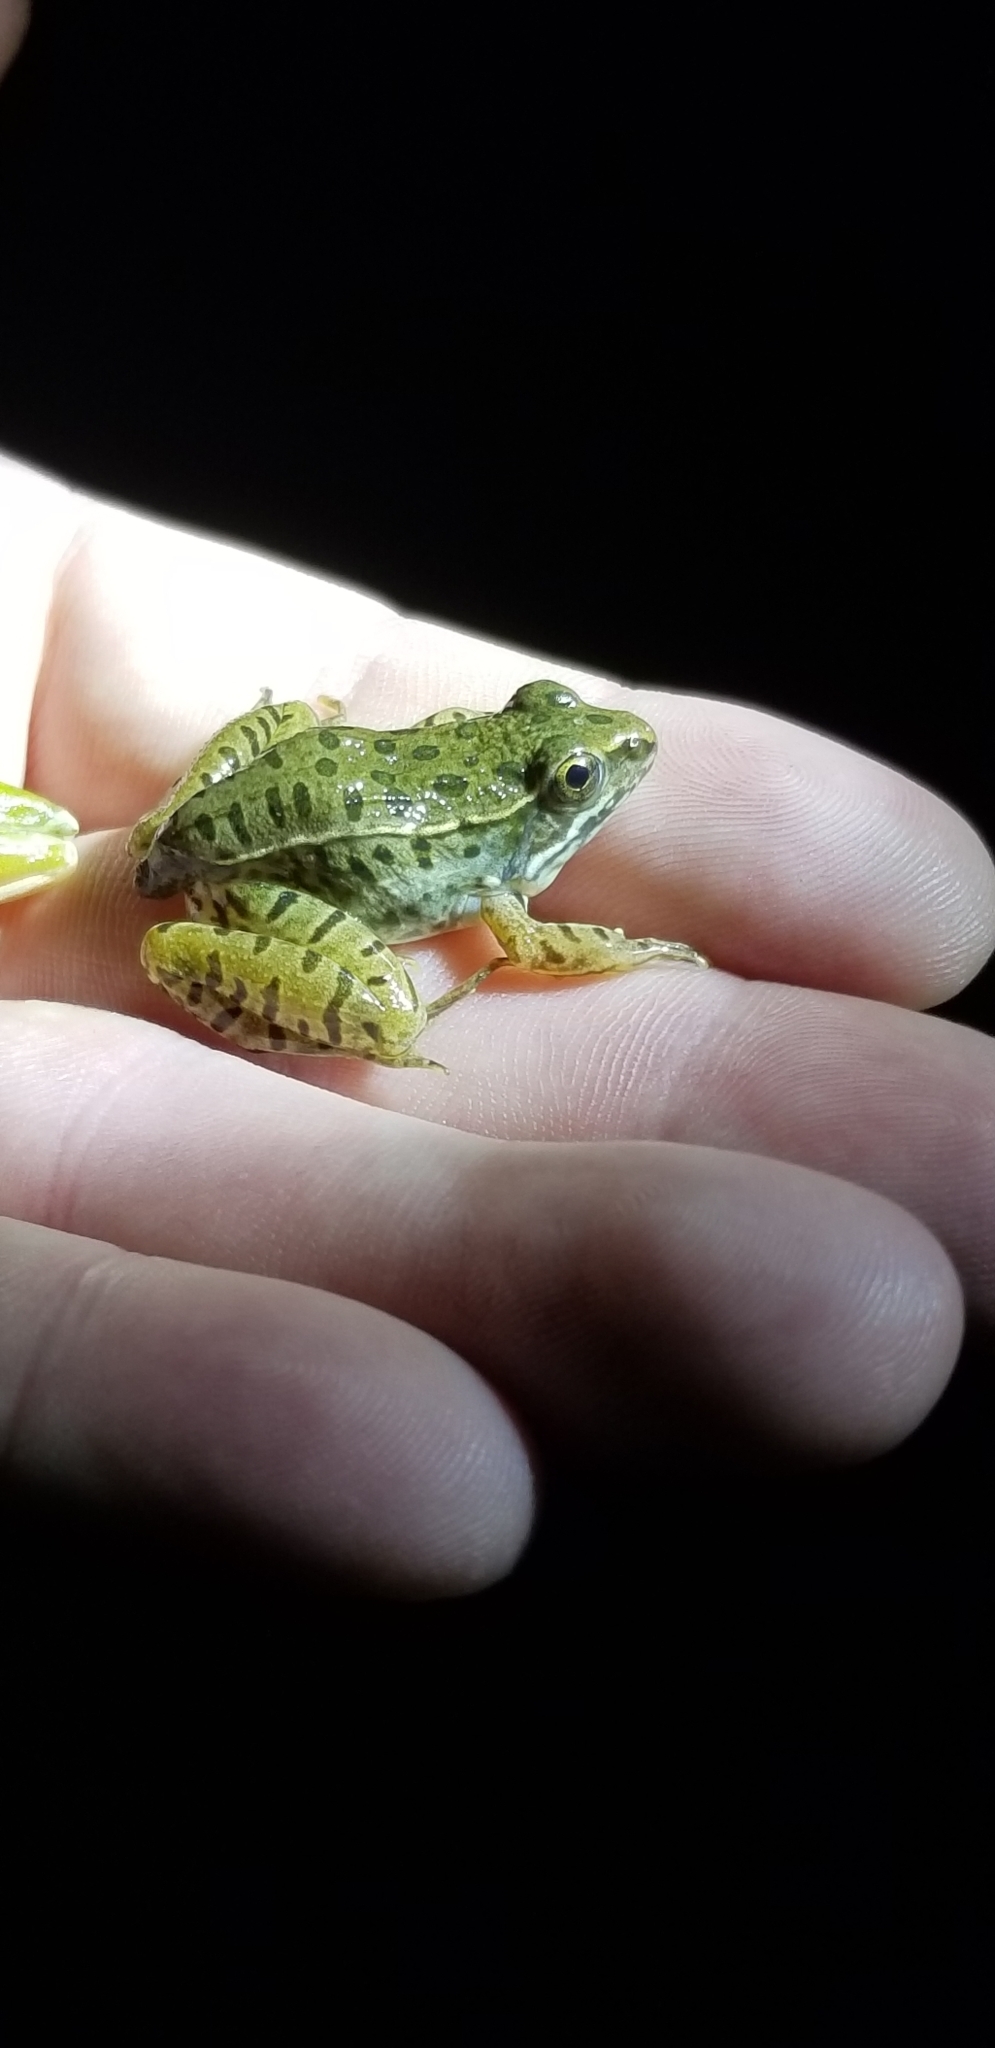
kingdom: Animalia
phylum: Chordata
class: Amphibia
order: Anura
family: Ranidae
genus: Lithobates
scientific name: Lithobates sphenocephalus
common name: Southern leopard frog
